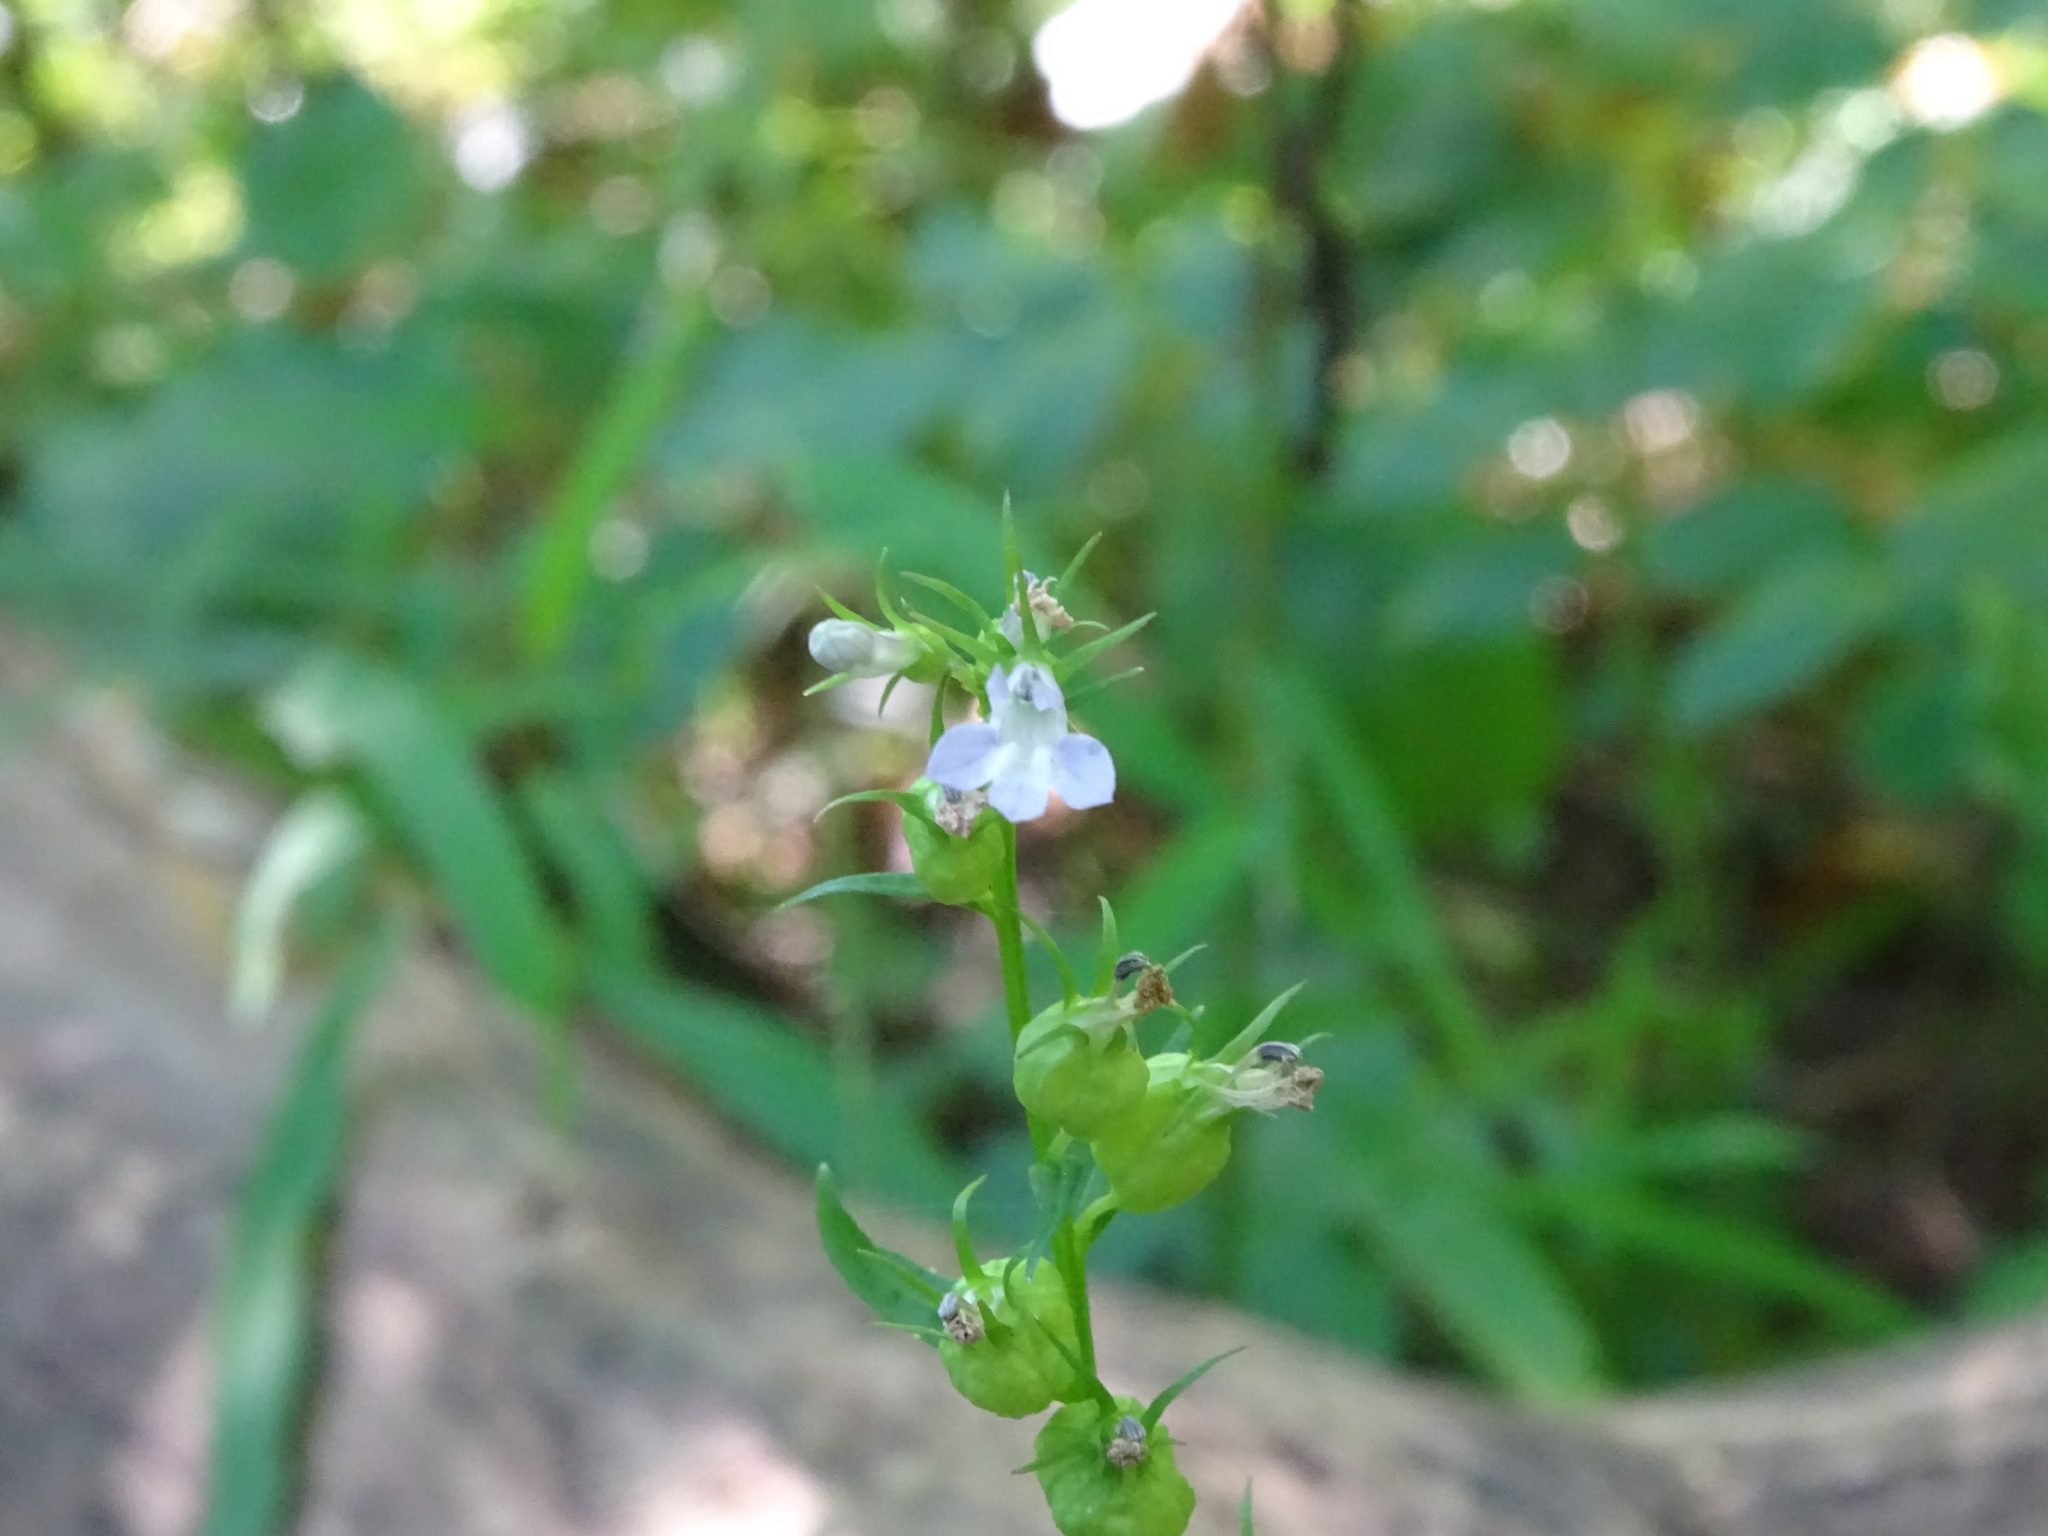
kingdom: Plantae
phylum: Tracheophyta
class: Magnoliopsida
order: Asterales
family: Campanulaceae
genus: Lobelia
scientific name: Lobelia inflata
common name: Indian tobacco
